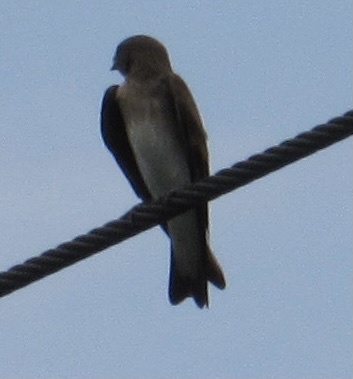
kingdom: Animalia
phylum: Chordata
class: Aves
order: Passeriformes
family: Hirundinidae
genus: Stelgidopteryx
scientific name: Stelgidopteryx serripennis
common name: Northern rough-winged swallow
